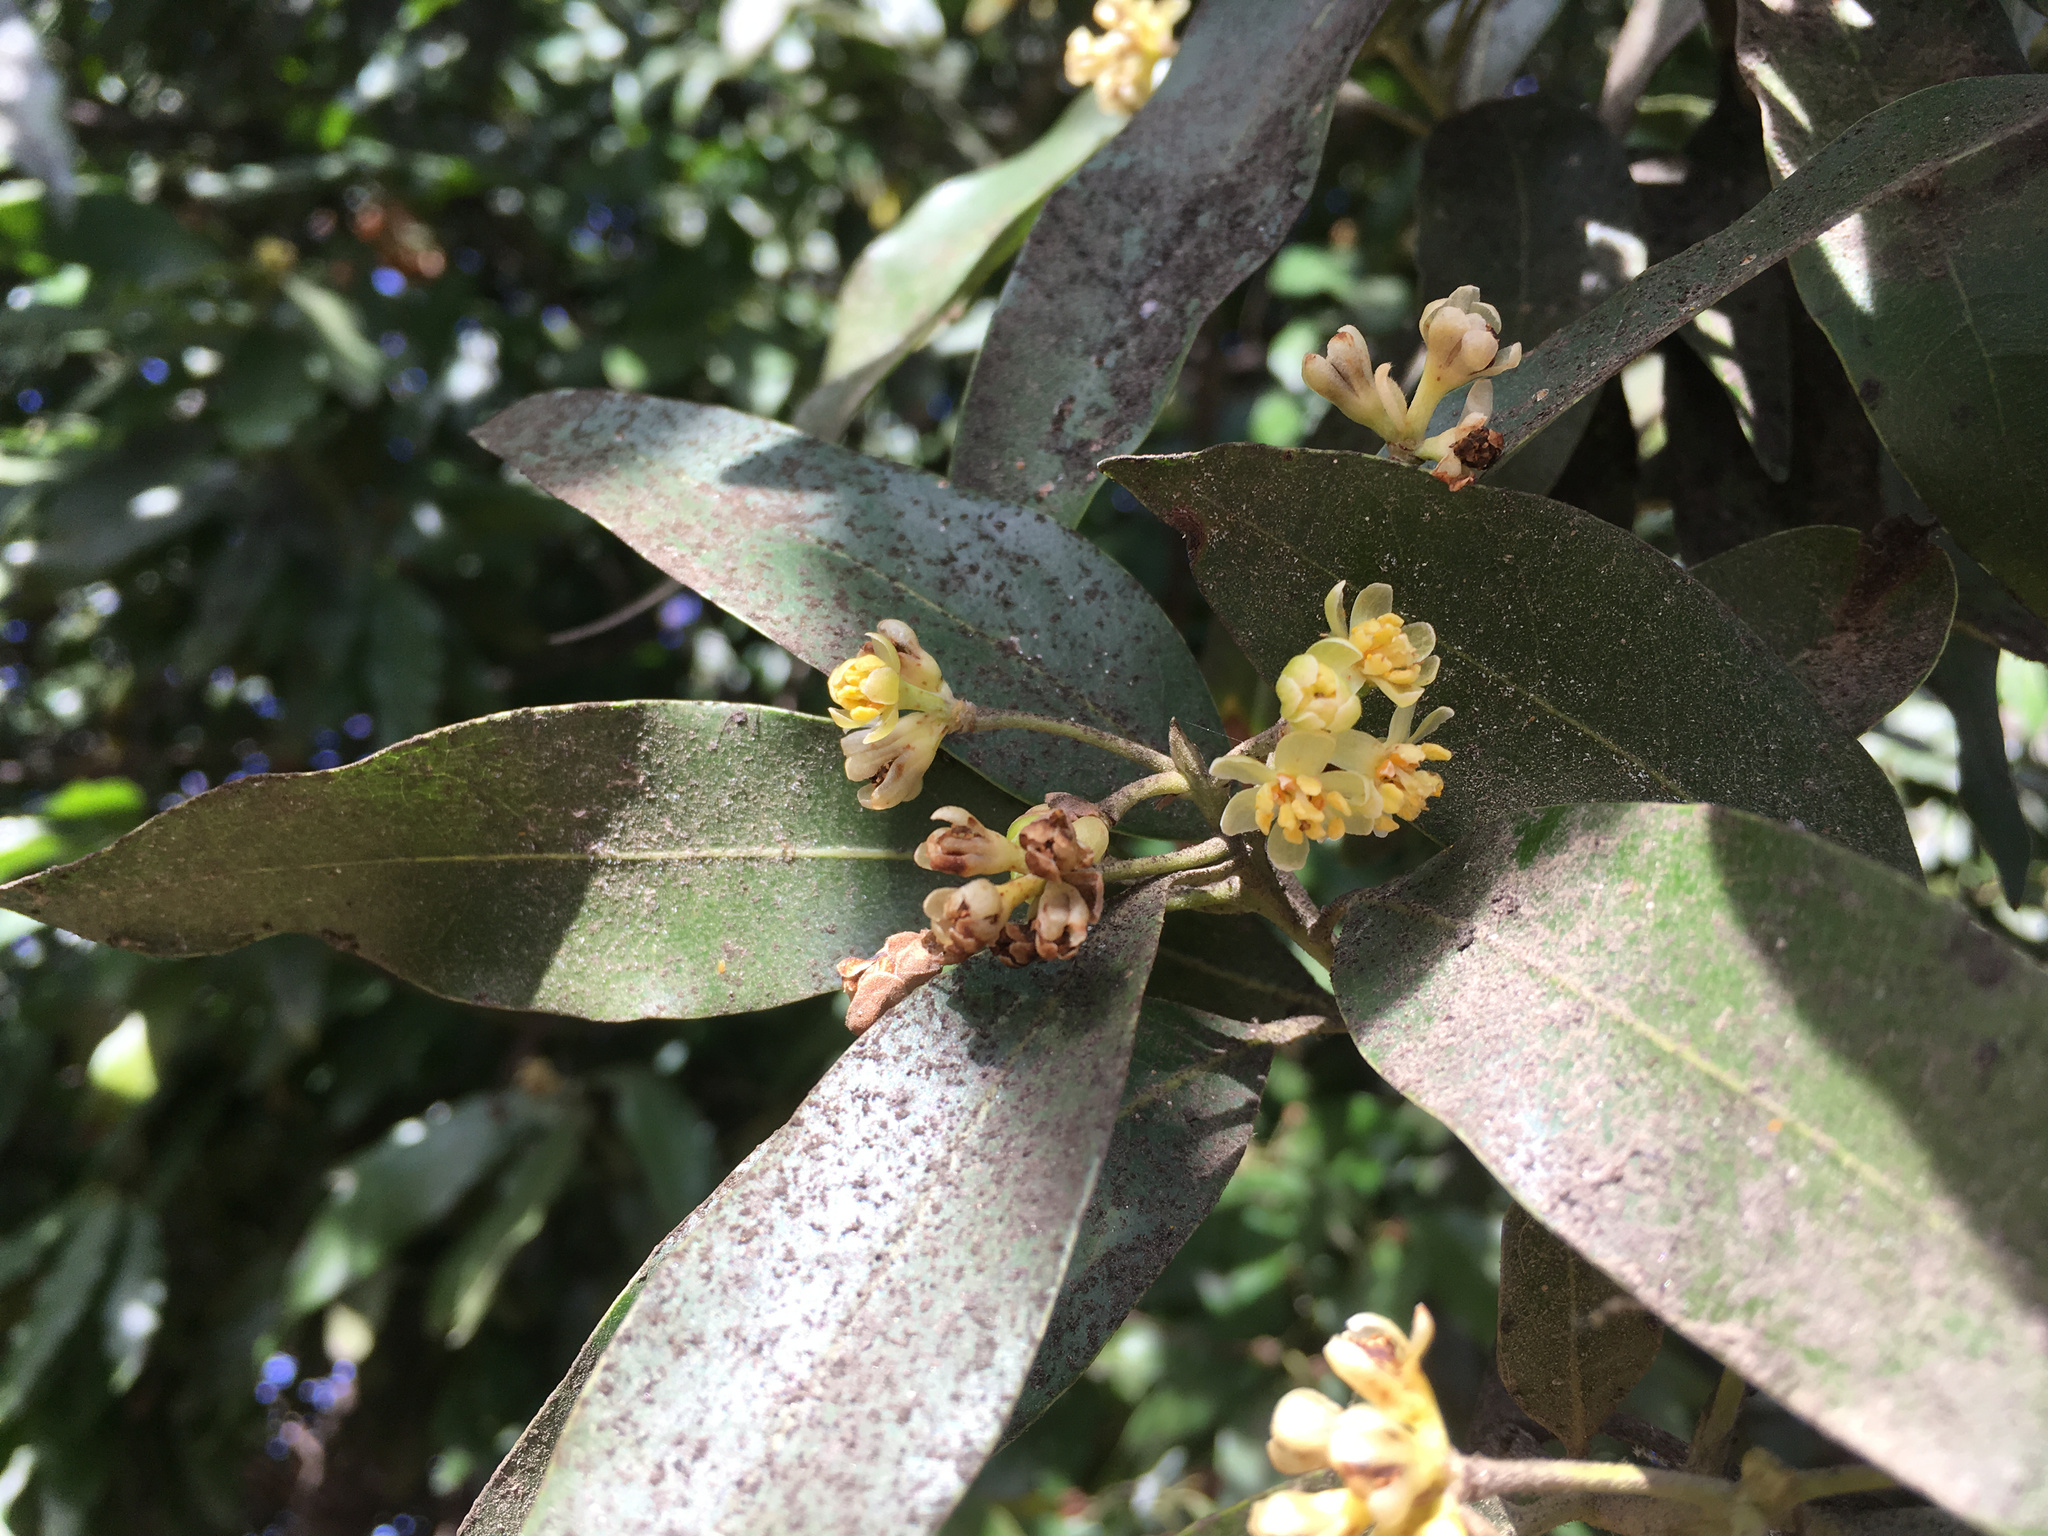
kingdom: Plantae
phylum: Tracheophyta
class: Magnoliopsida
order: Laurales
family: Lauraceae
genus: Umbellularia
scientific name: Umbellularia californica
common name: California bay
